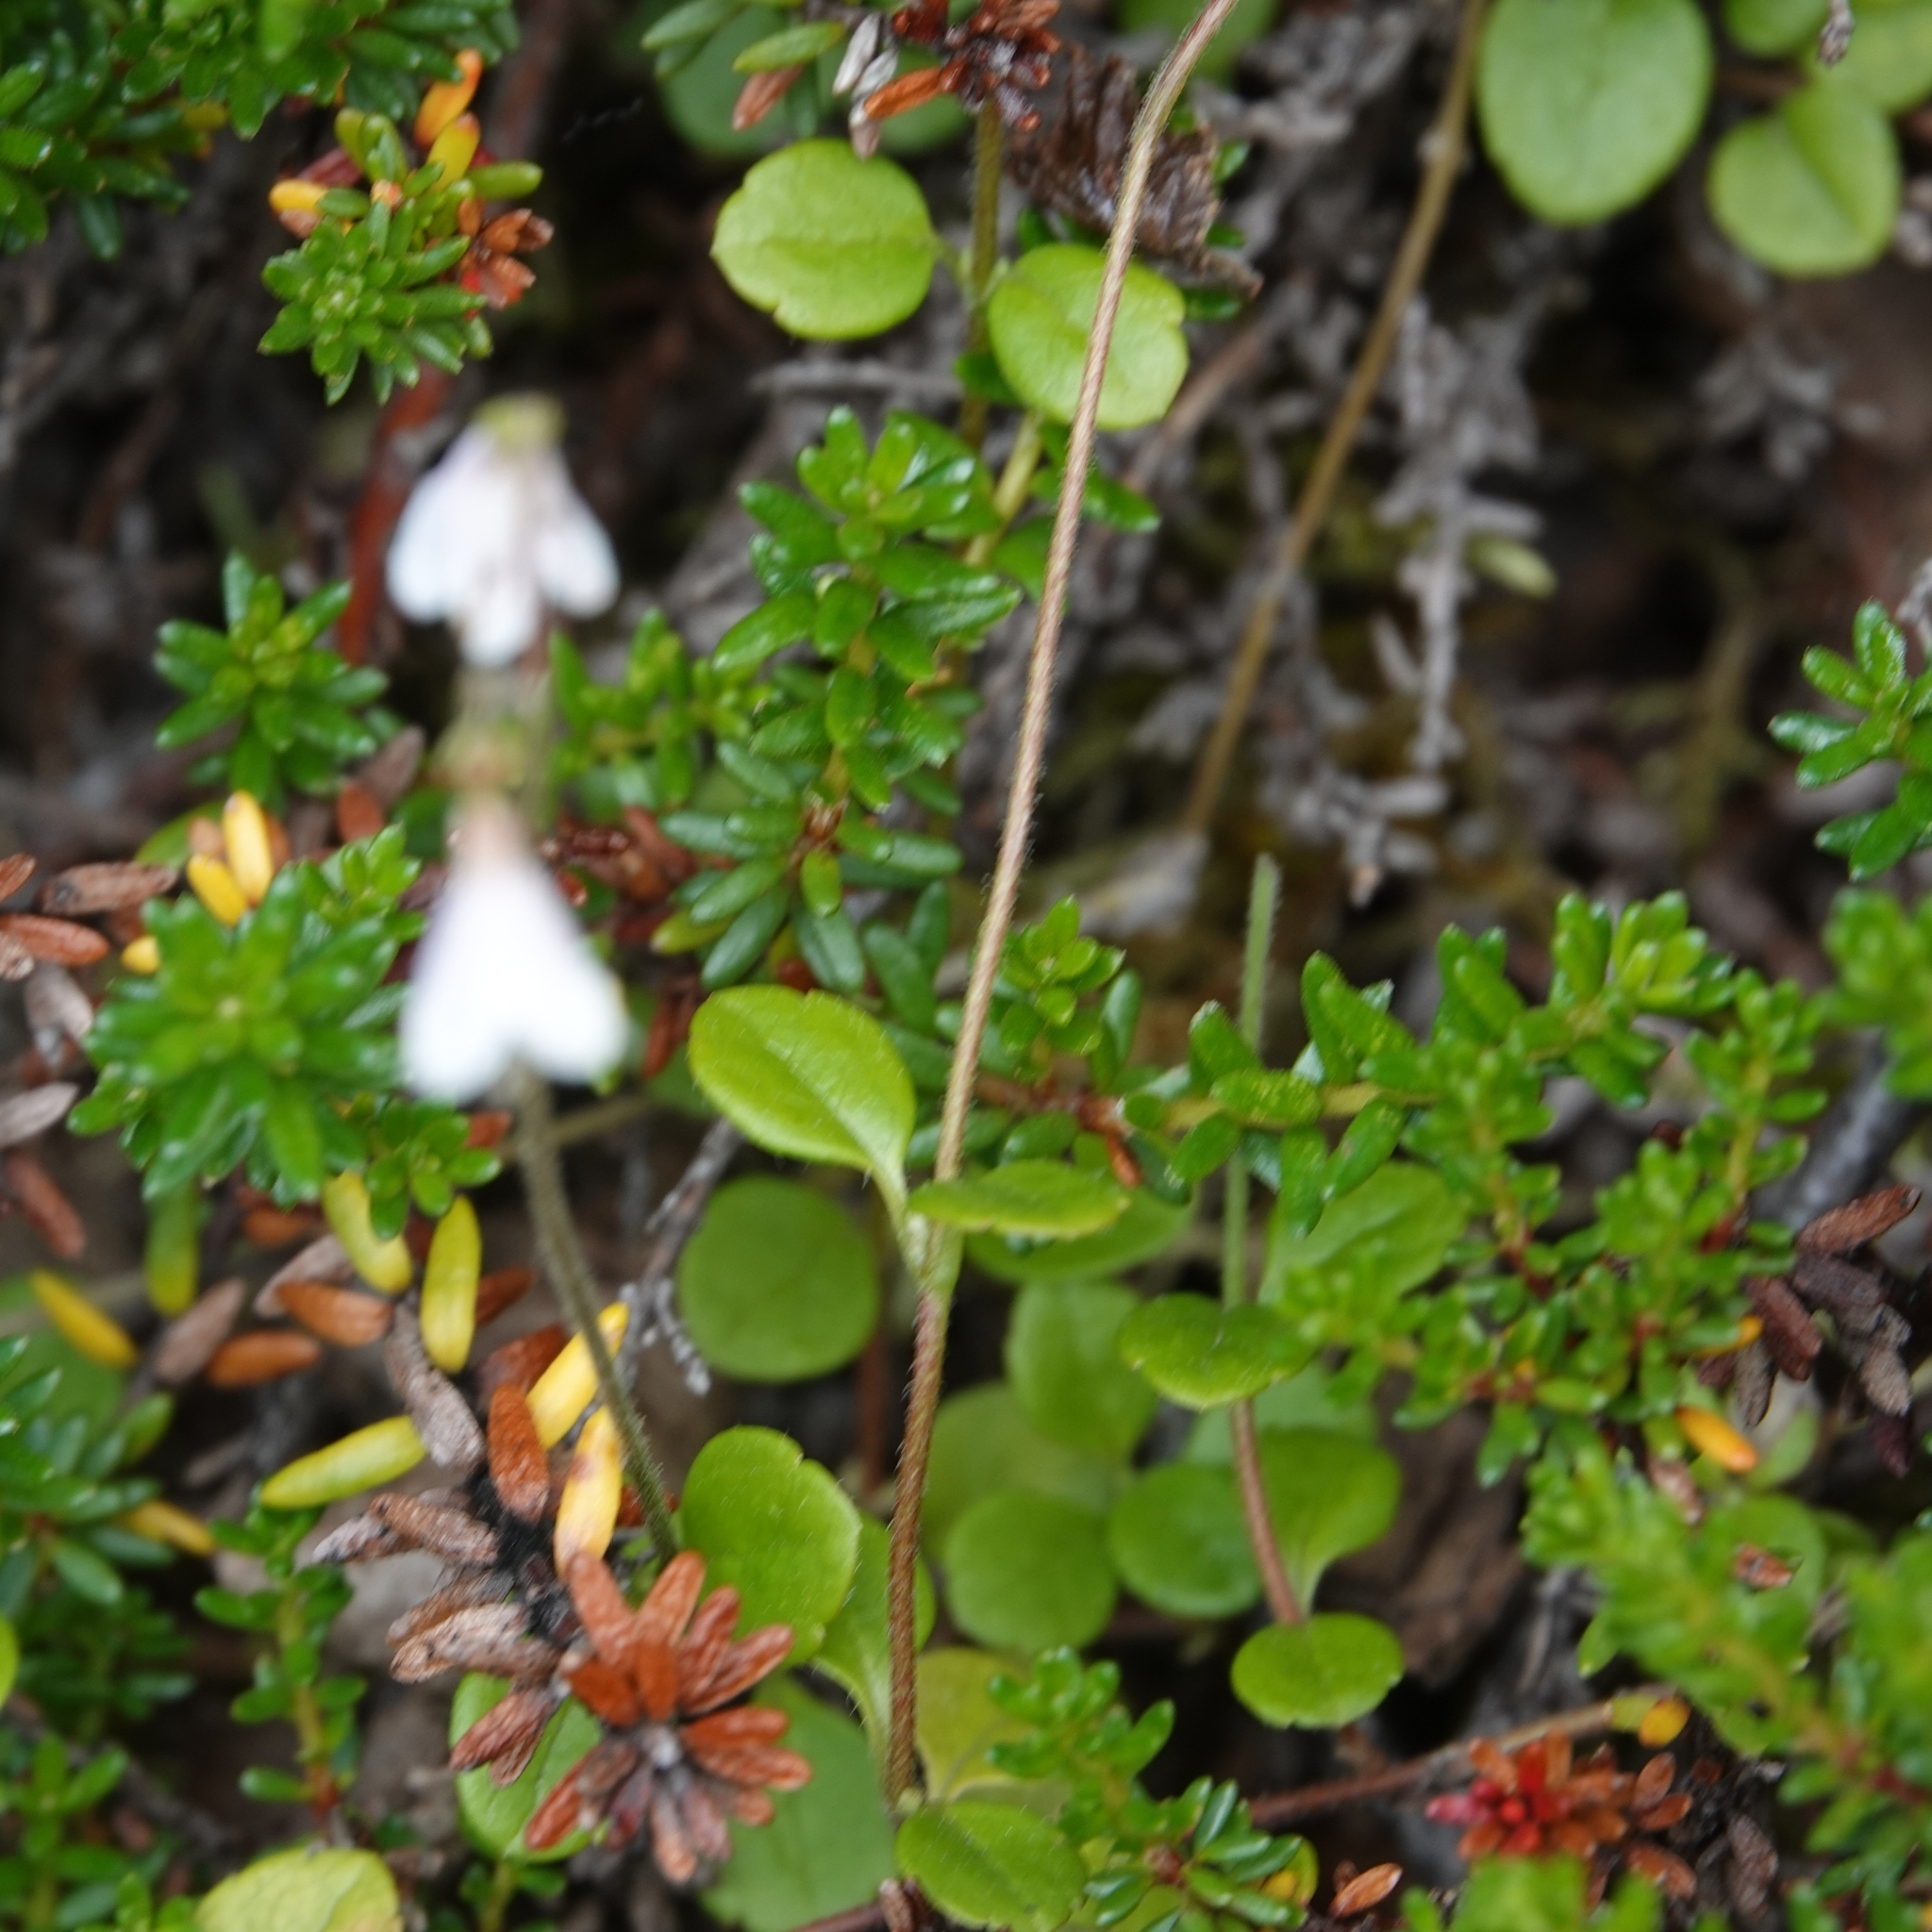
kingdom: Plantae
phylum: Tracheophyta
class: Magnoliopsida
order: Dipsacales
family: Caprifoliaceae
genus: Linnaea
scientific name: Linnaea borealis
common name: Twinflower
